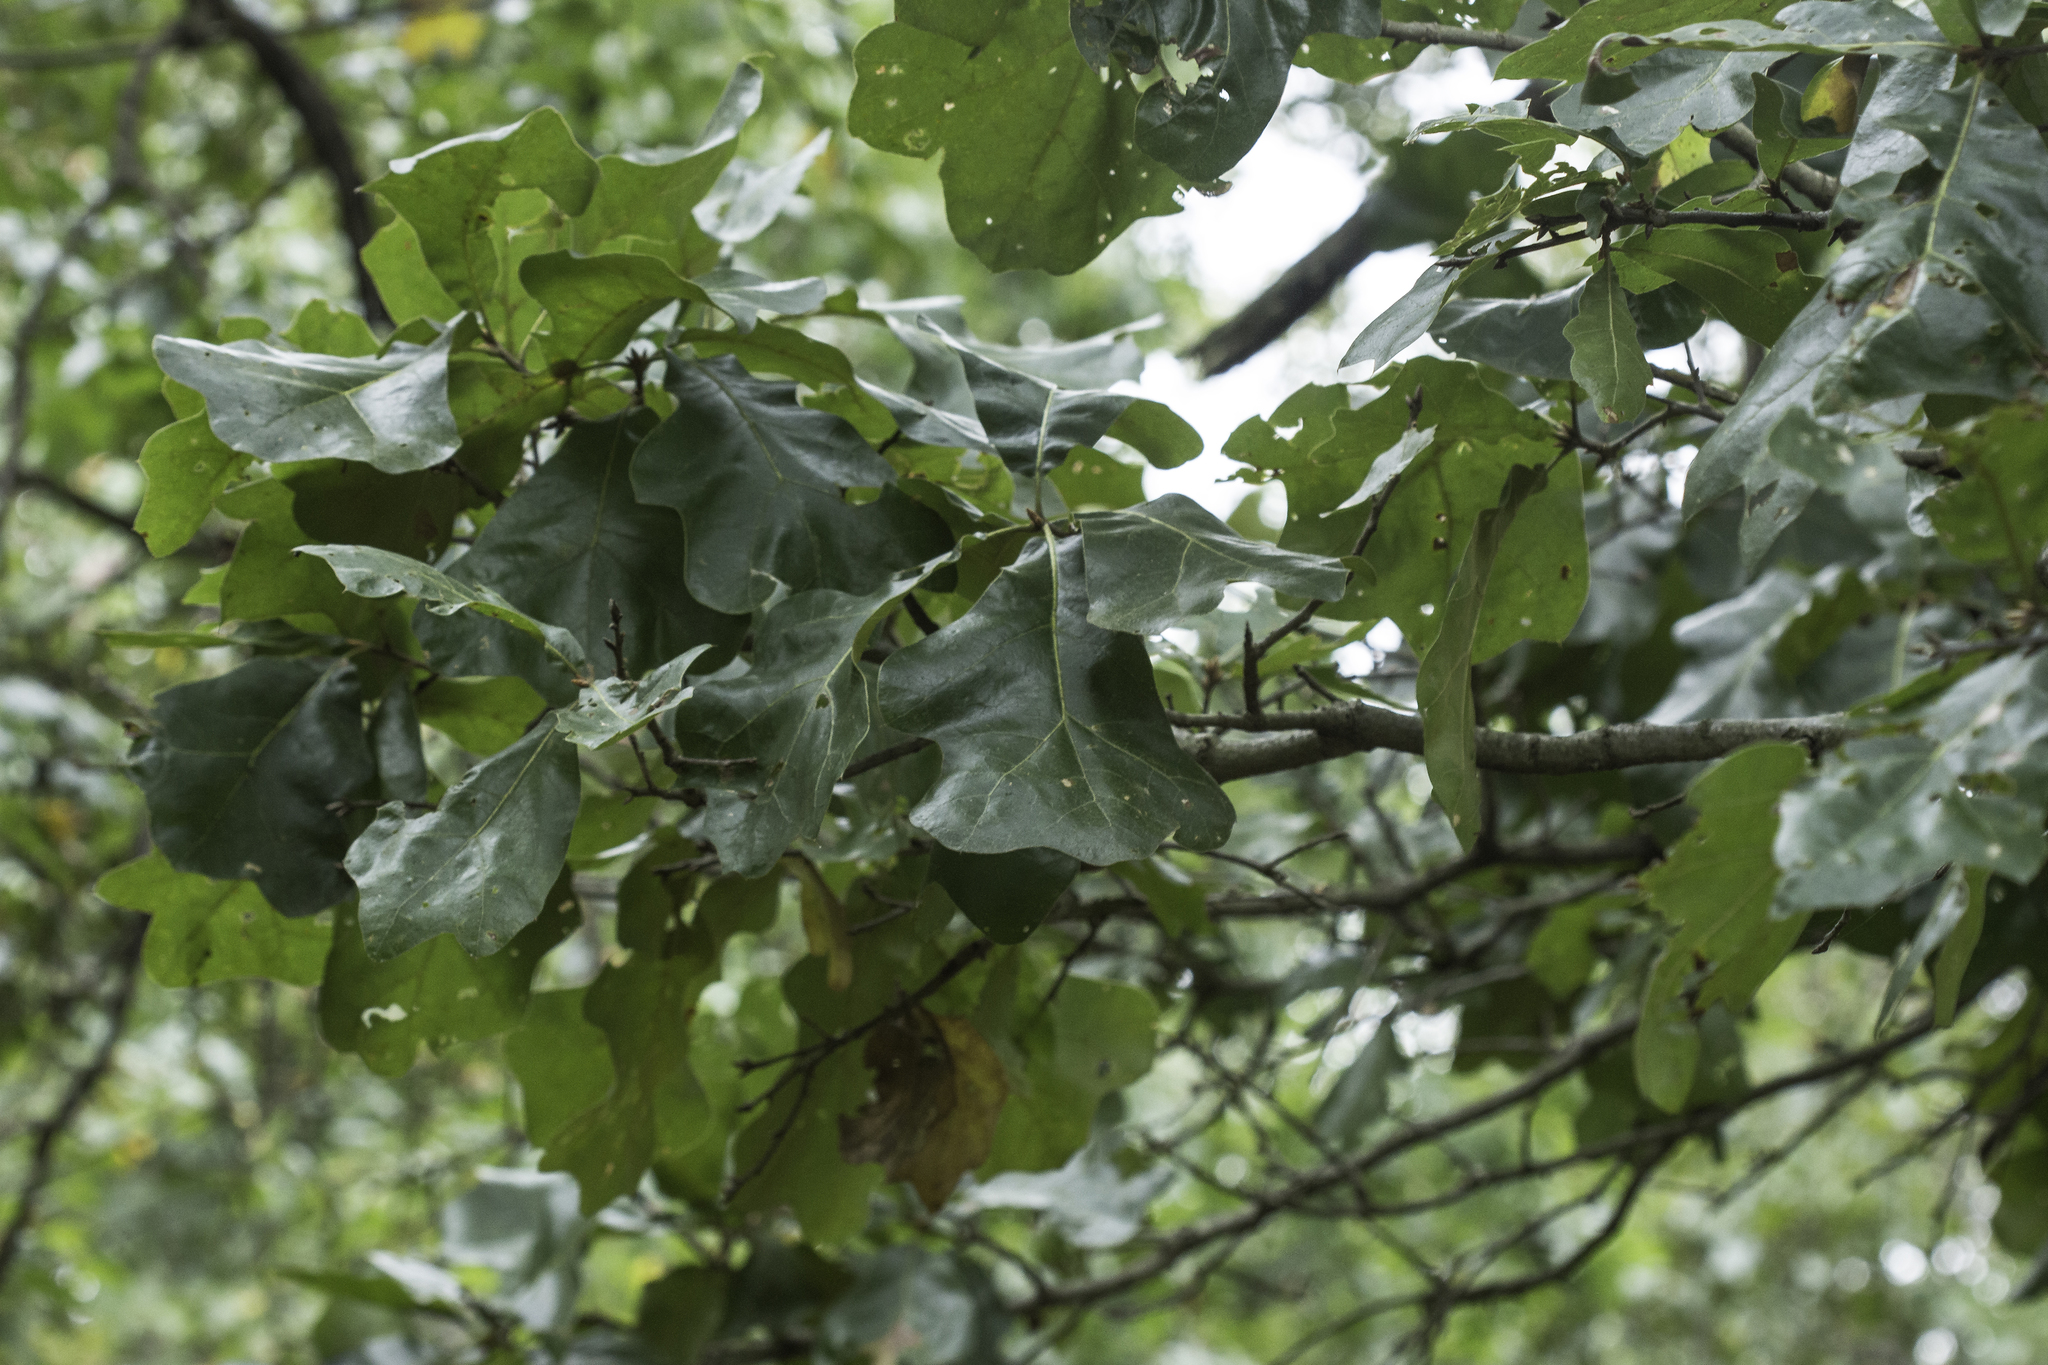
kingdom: Plantae
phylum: Tracheophyta
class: Magnoliopsida
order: Fagales
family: Fagaceae
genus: Quercus
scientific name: Quercus marilandica
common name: Blackjack oak
